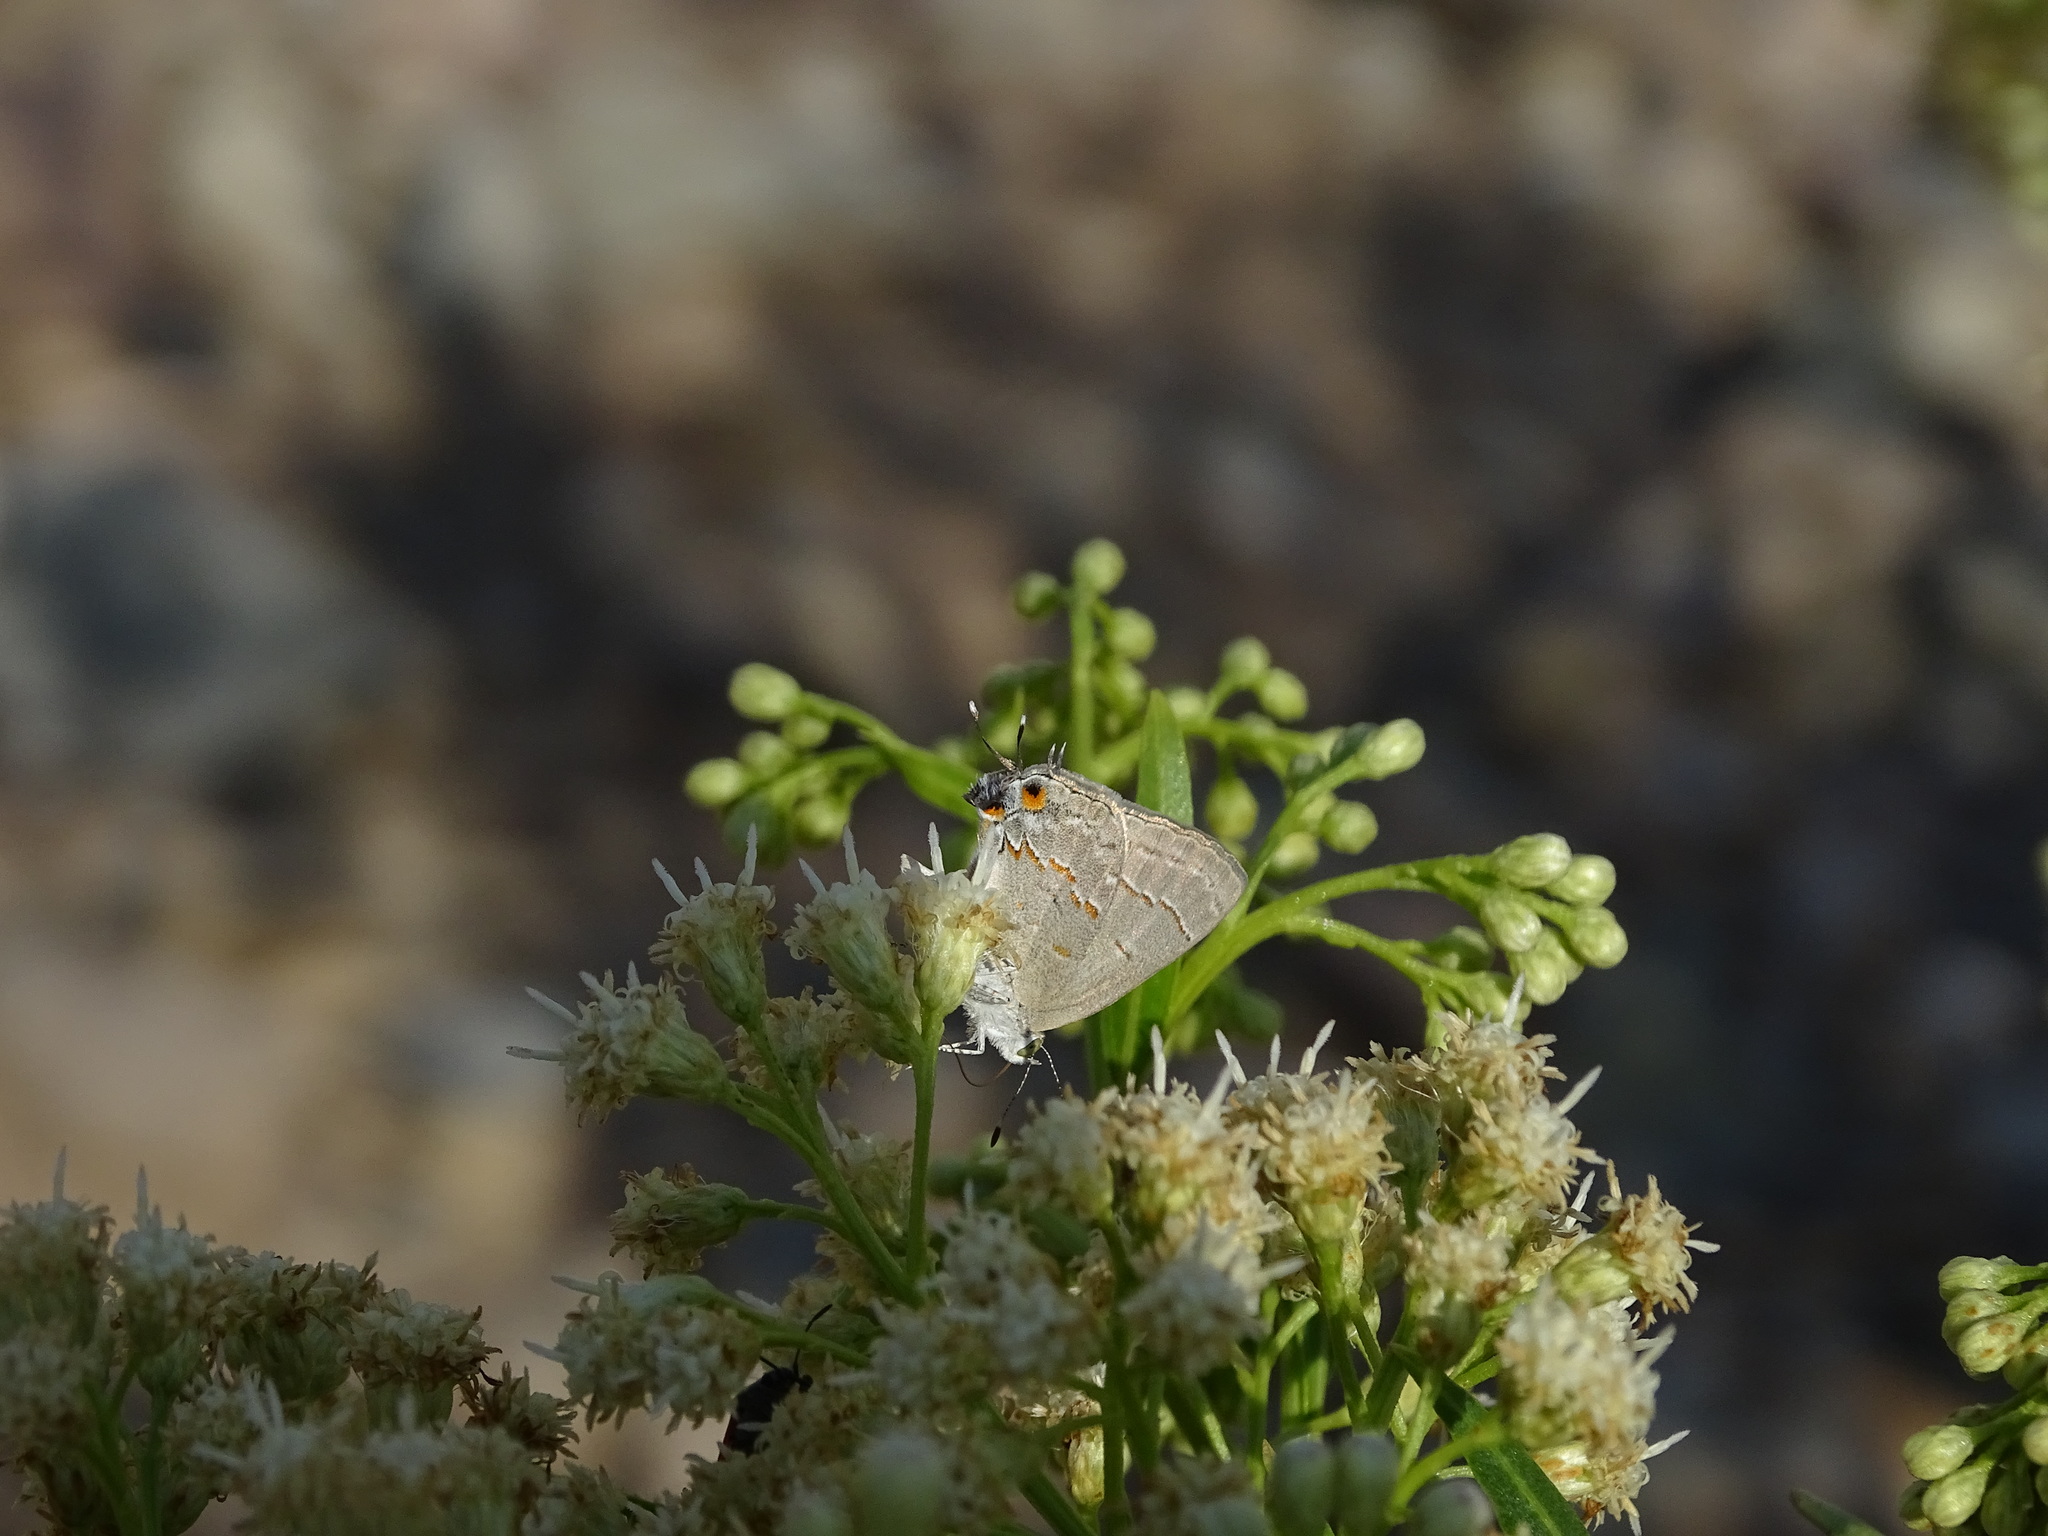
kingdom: Animalia
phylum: Arthropoda
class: Insecta
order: Lepidoptera
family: Lycaenidae
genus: Ministrymon
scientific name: Ministrymon leda
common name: Leda ministreak
